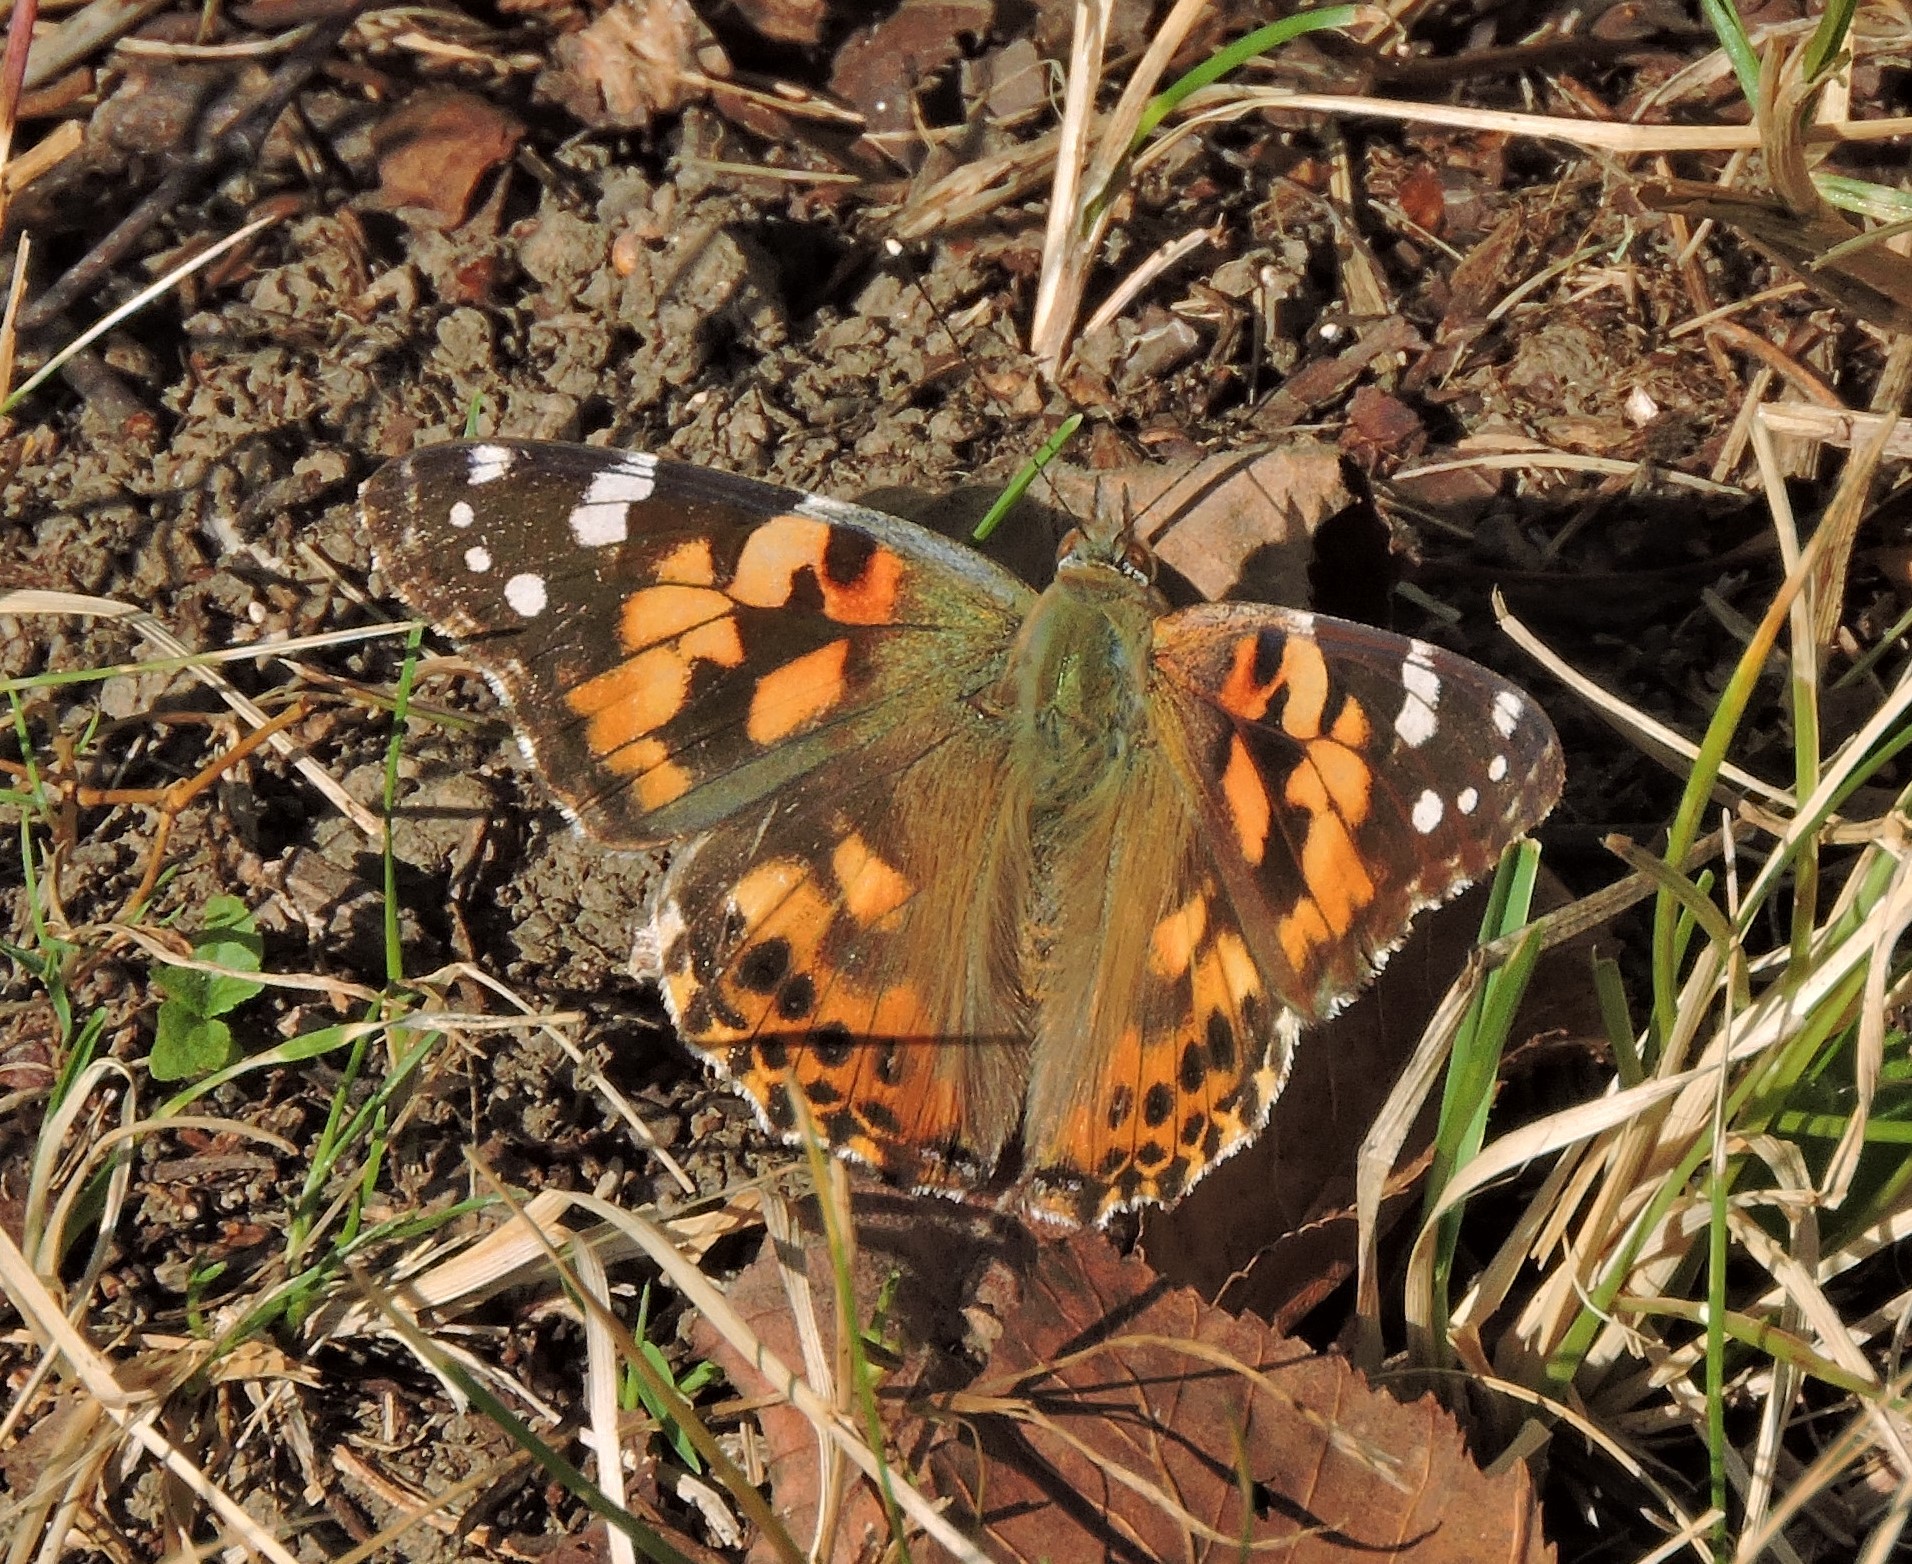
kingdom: Animalia
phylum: Arthropoda
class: Insecta
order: Lepidoptera
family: Nymphalidae
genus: Vanessa
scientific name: Vanessa cardui
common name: Painted lady
